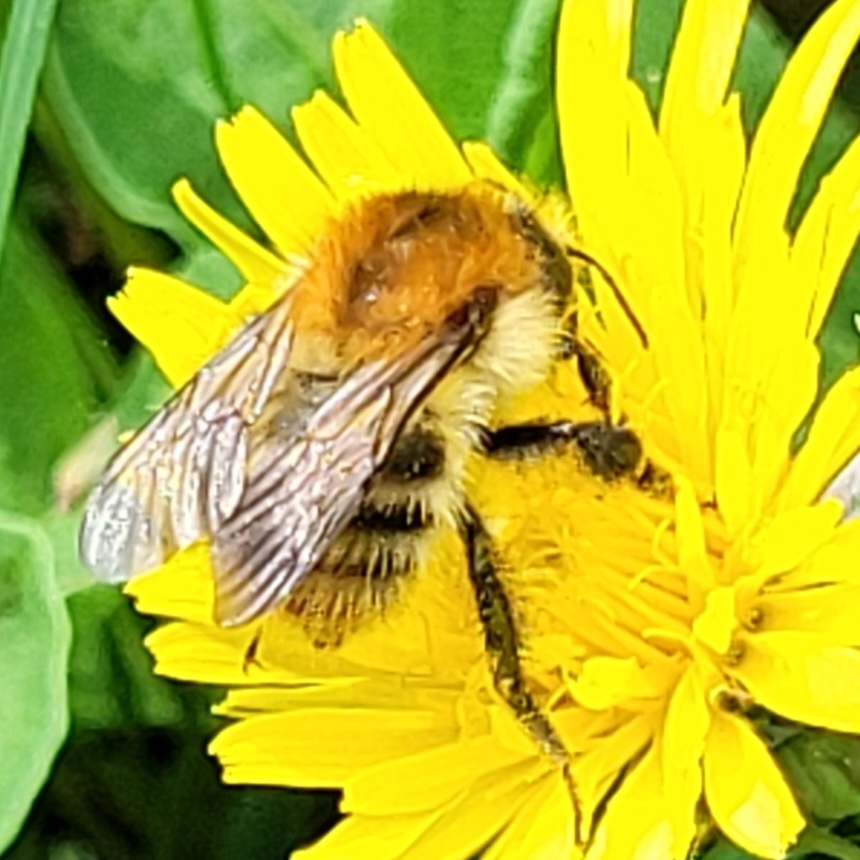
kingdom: Animalia
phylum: Arthropoda
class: Insecta
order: Hymenoptera
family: Apidae
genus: Bombus
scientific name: Bombus pascuorum
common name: Common carder bee
